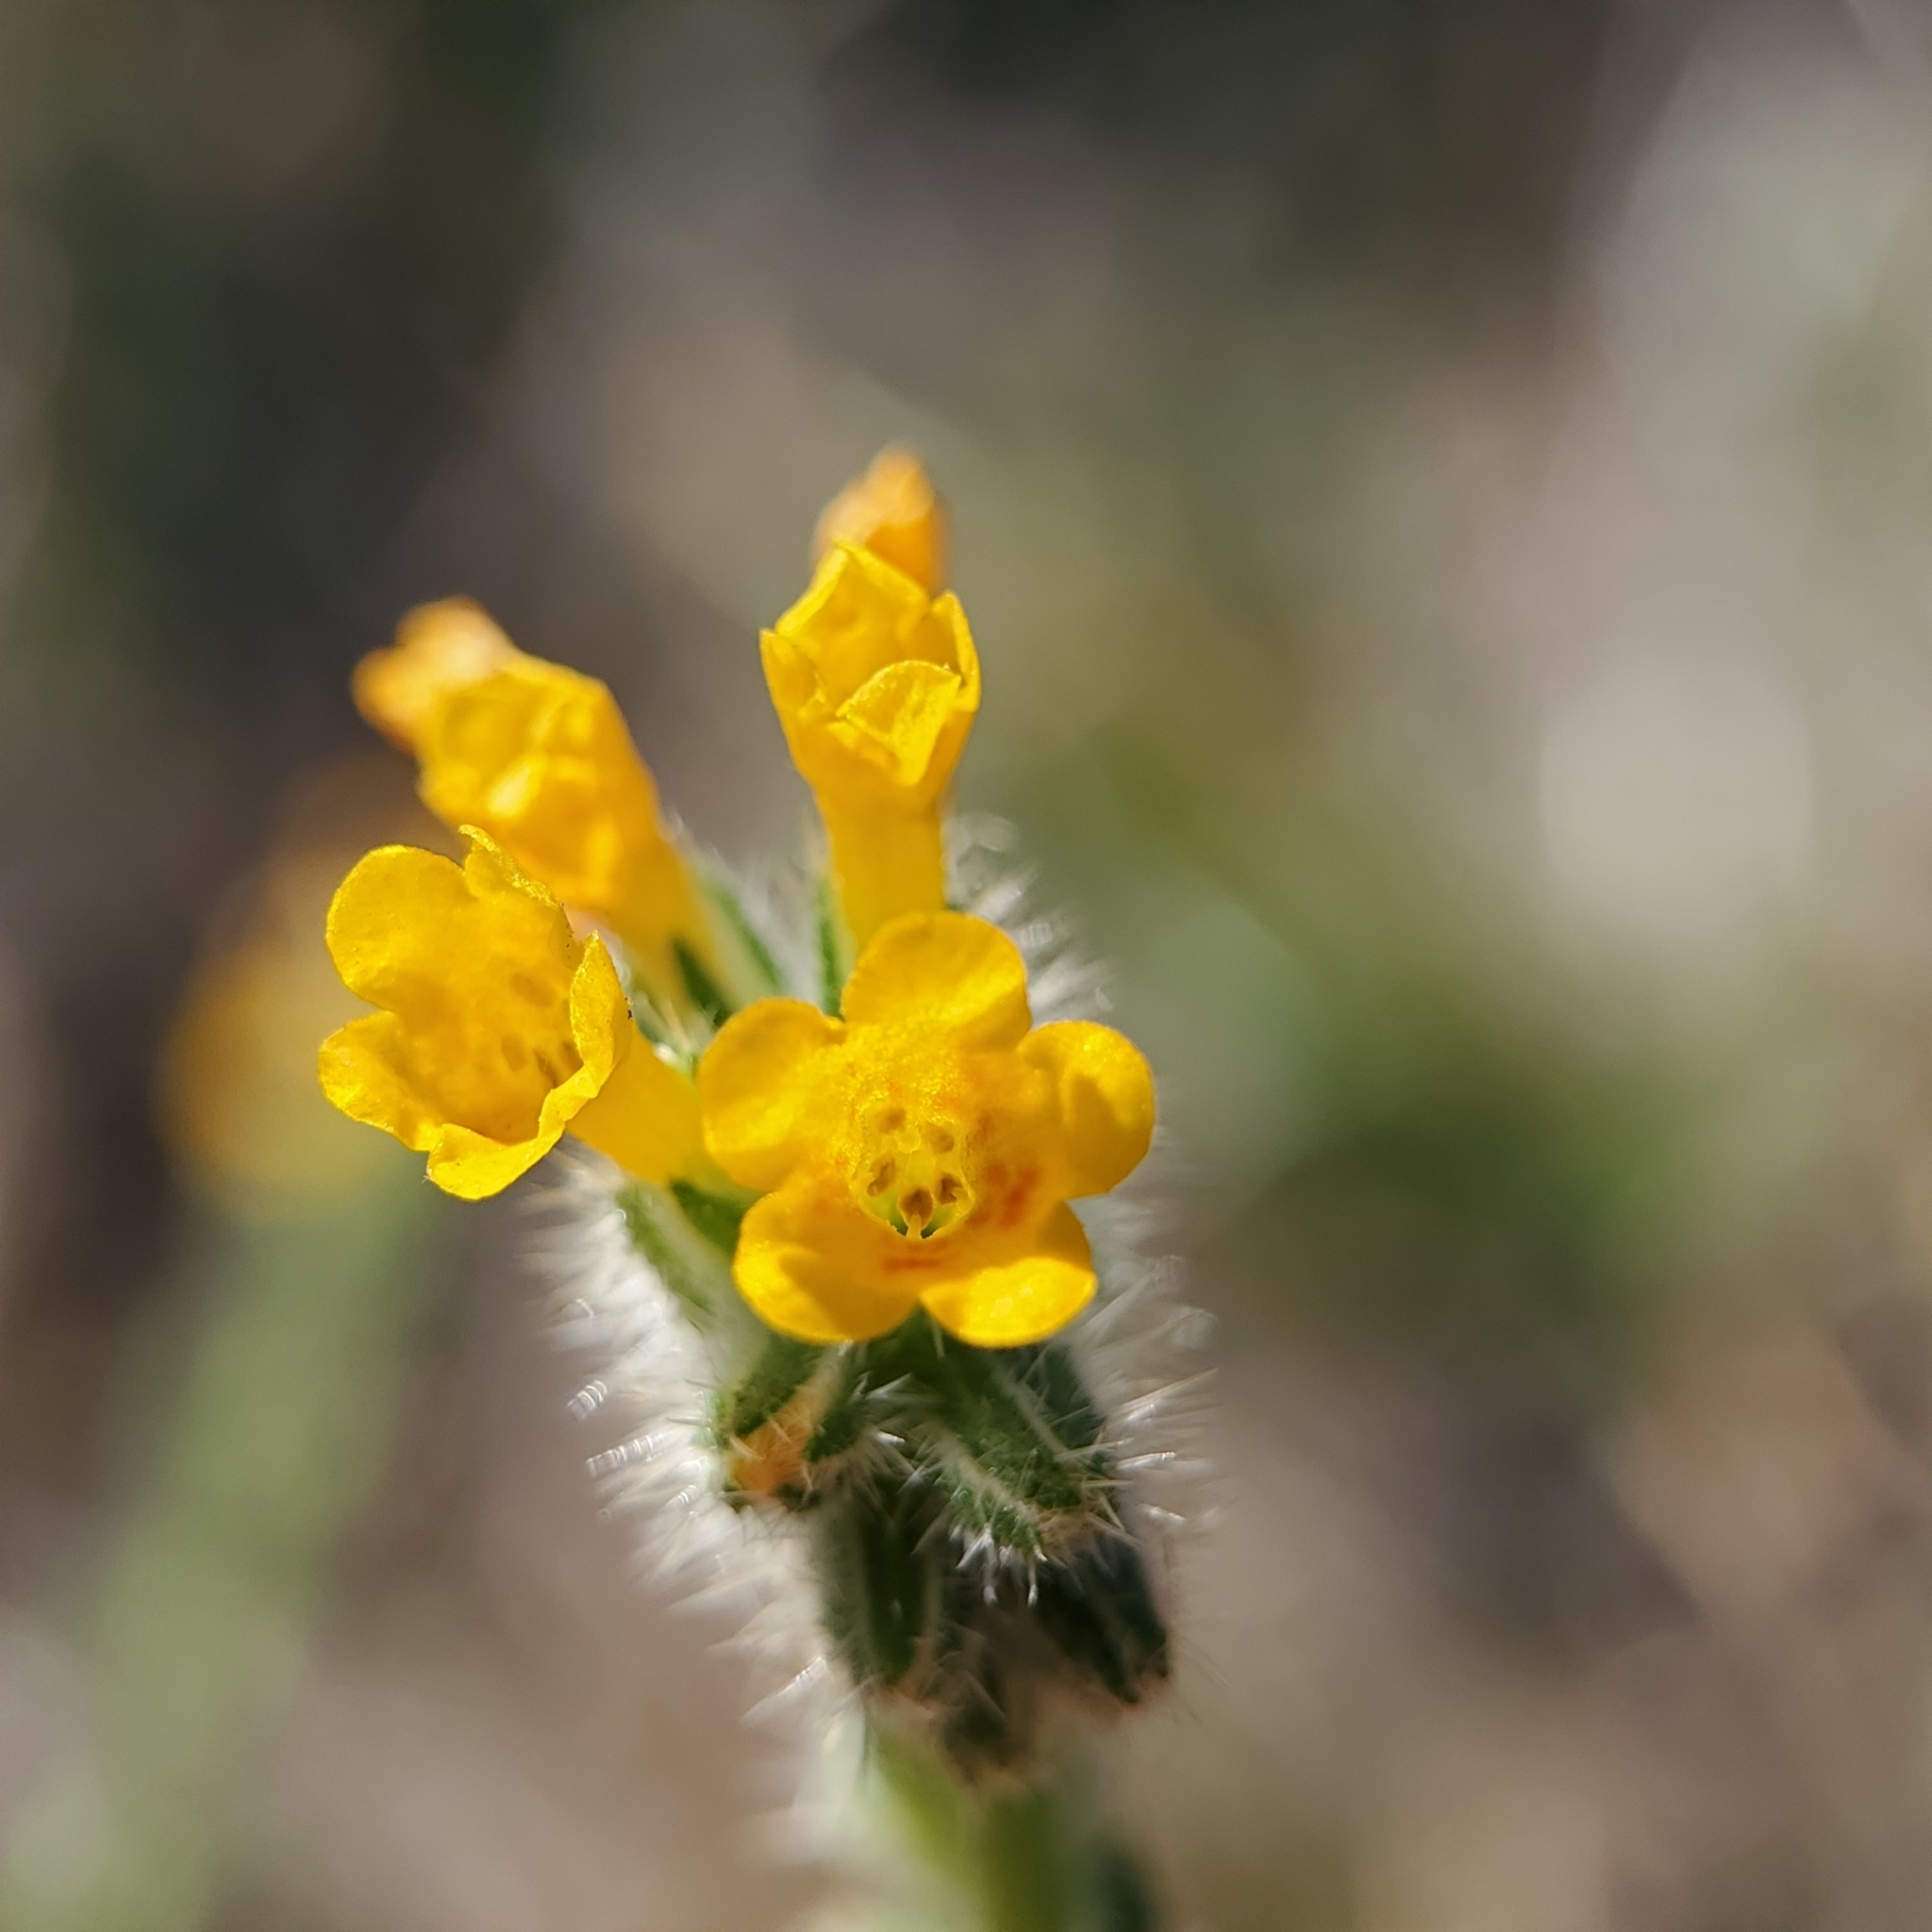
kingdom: Plantae
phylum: Tracheophyta
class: Magnoliopsida
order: Boraginales
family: Boraginaceae
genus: Amsinckia
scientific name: Amsinckia menziesii
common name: Menzies' fiddleneck
